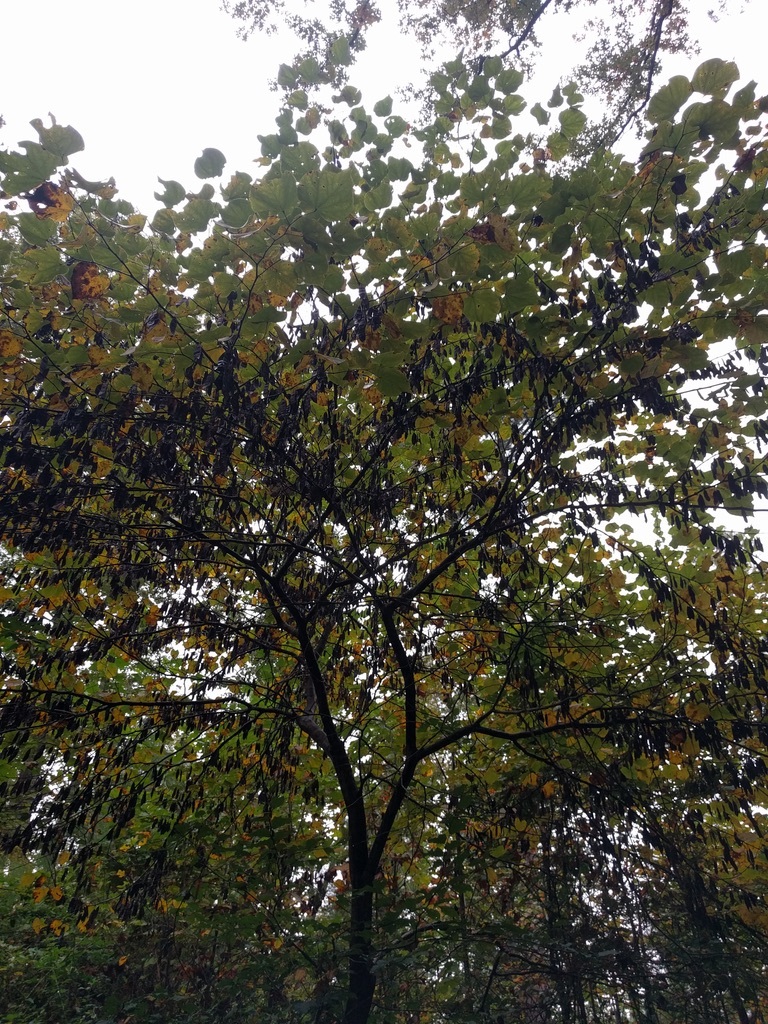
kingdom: Plantae
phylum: Tracheophyta
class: Magnoliopsida
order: Fabales
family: Fabaceae
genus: Cercis
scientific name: Cercis canadensis
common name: Eastern redbud
